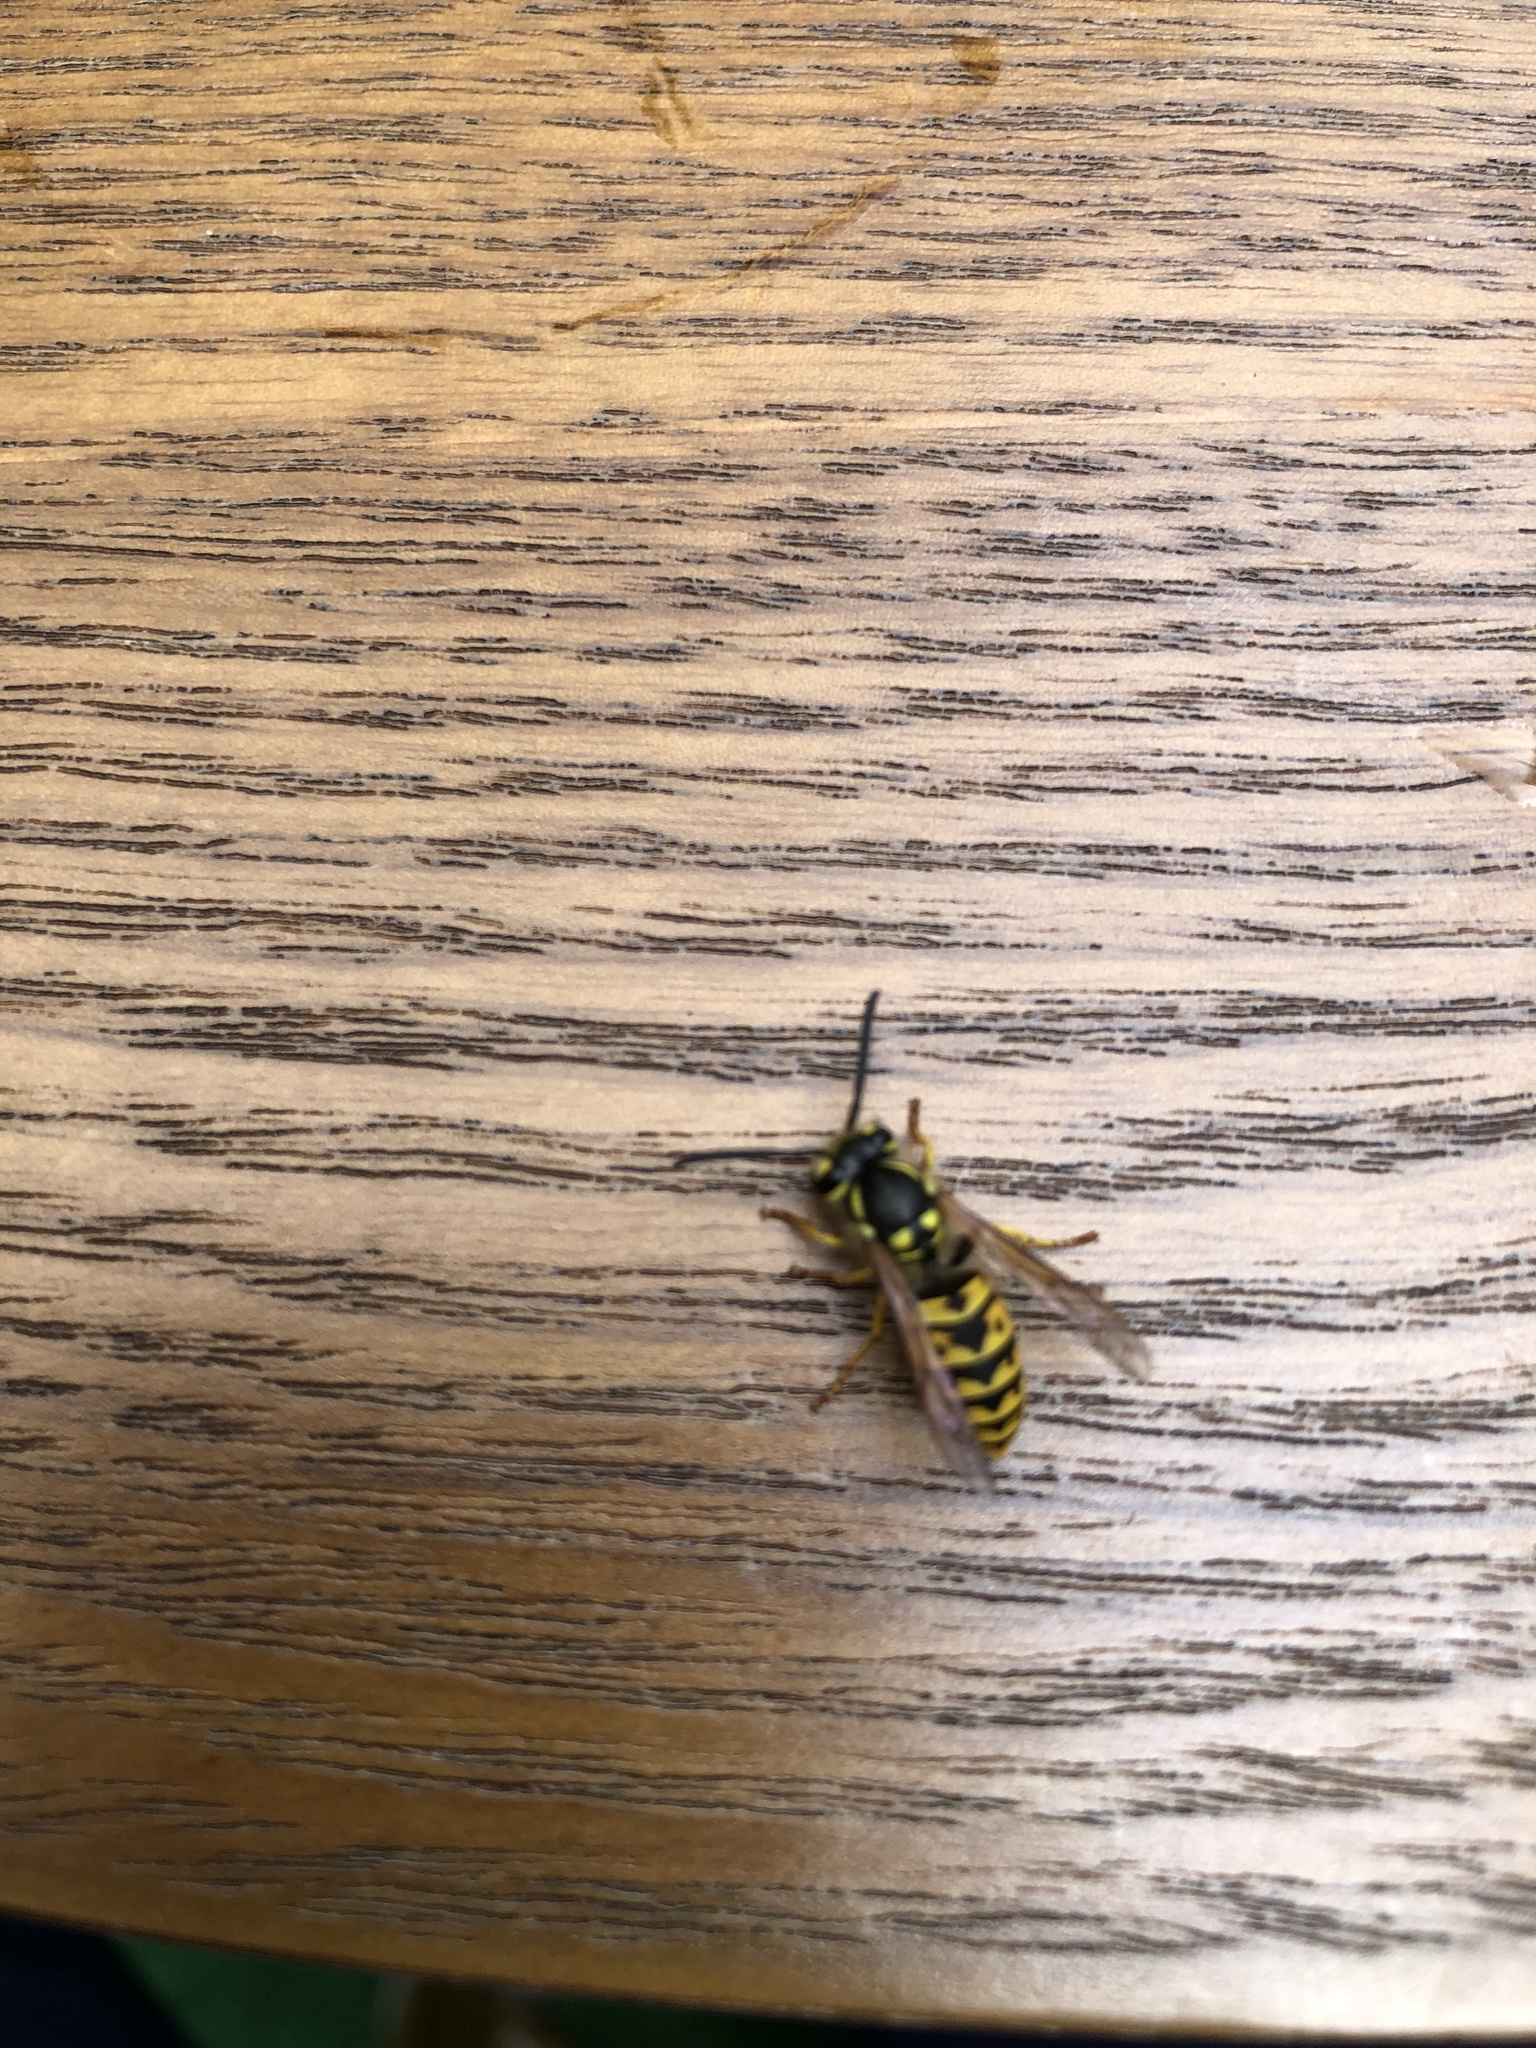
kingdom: Animalia
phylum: Arthropoda
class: Insecta
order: Hymenoptera
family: Vespidae
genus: Vespula
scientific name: Vespula germanica
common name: German wasp
